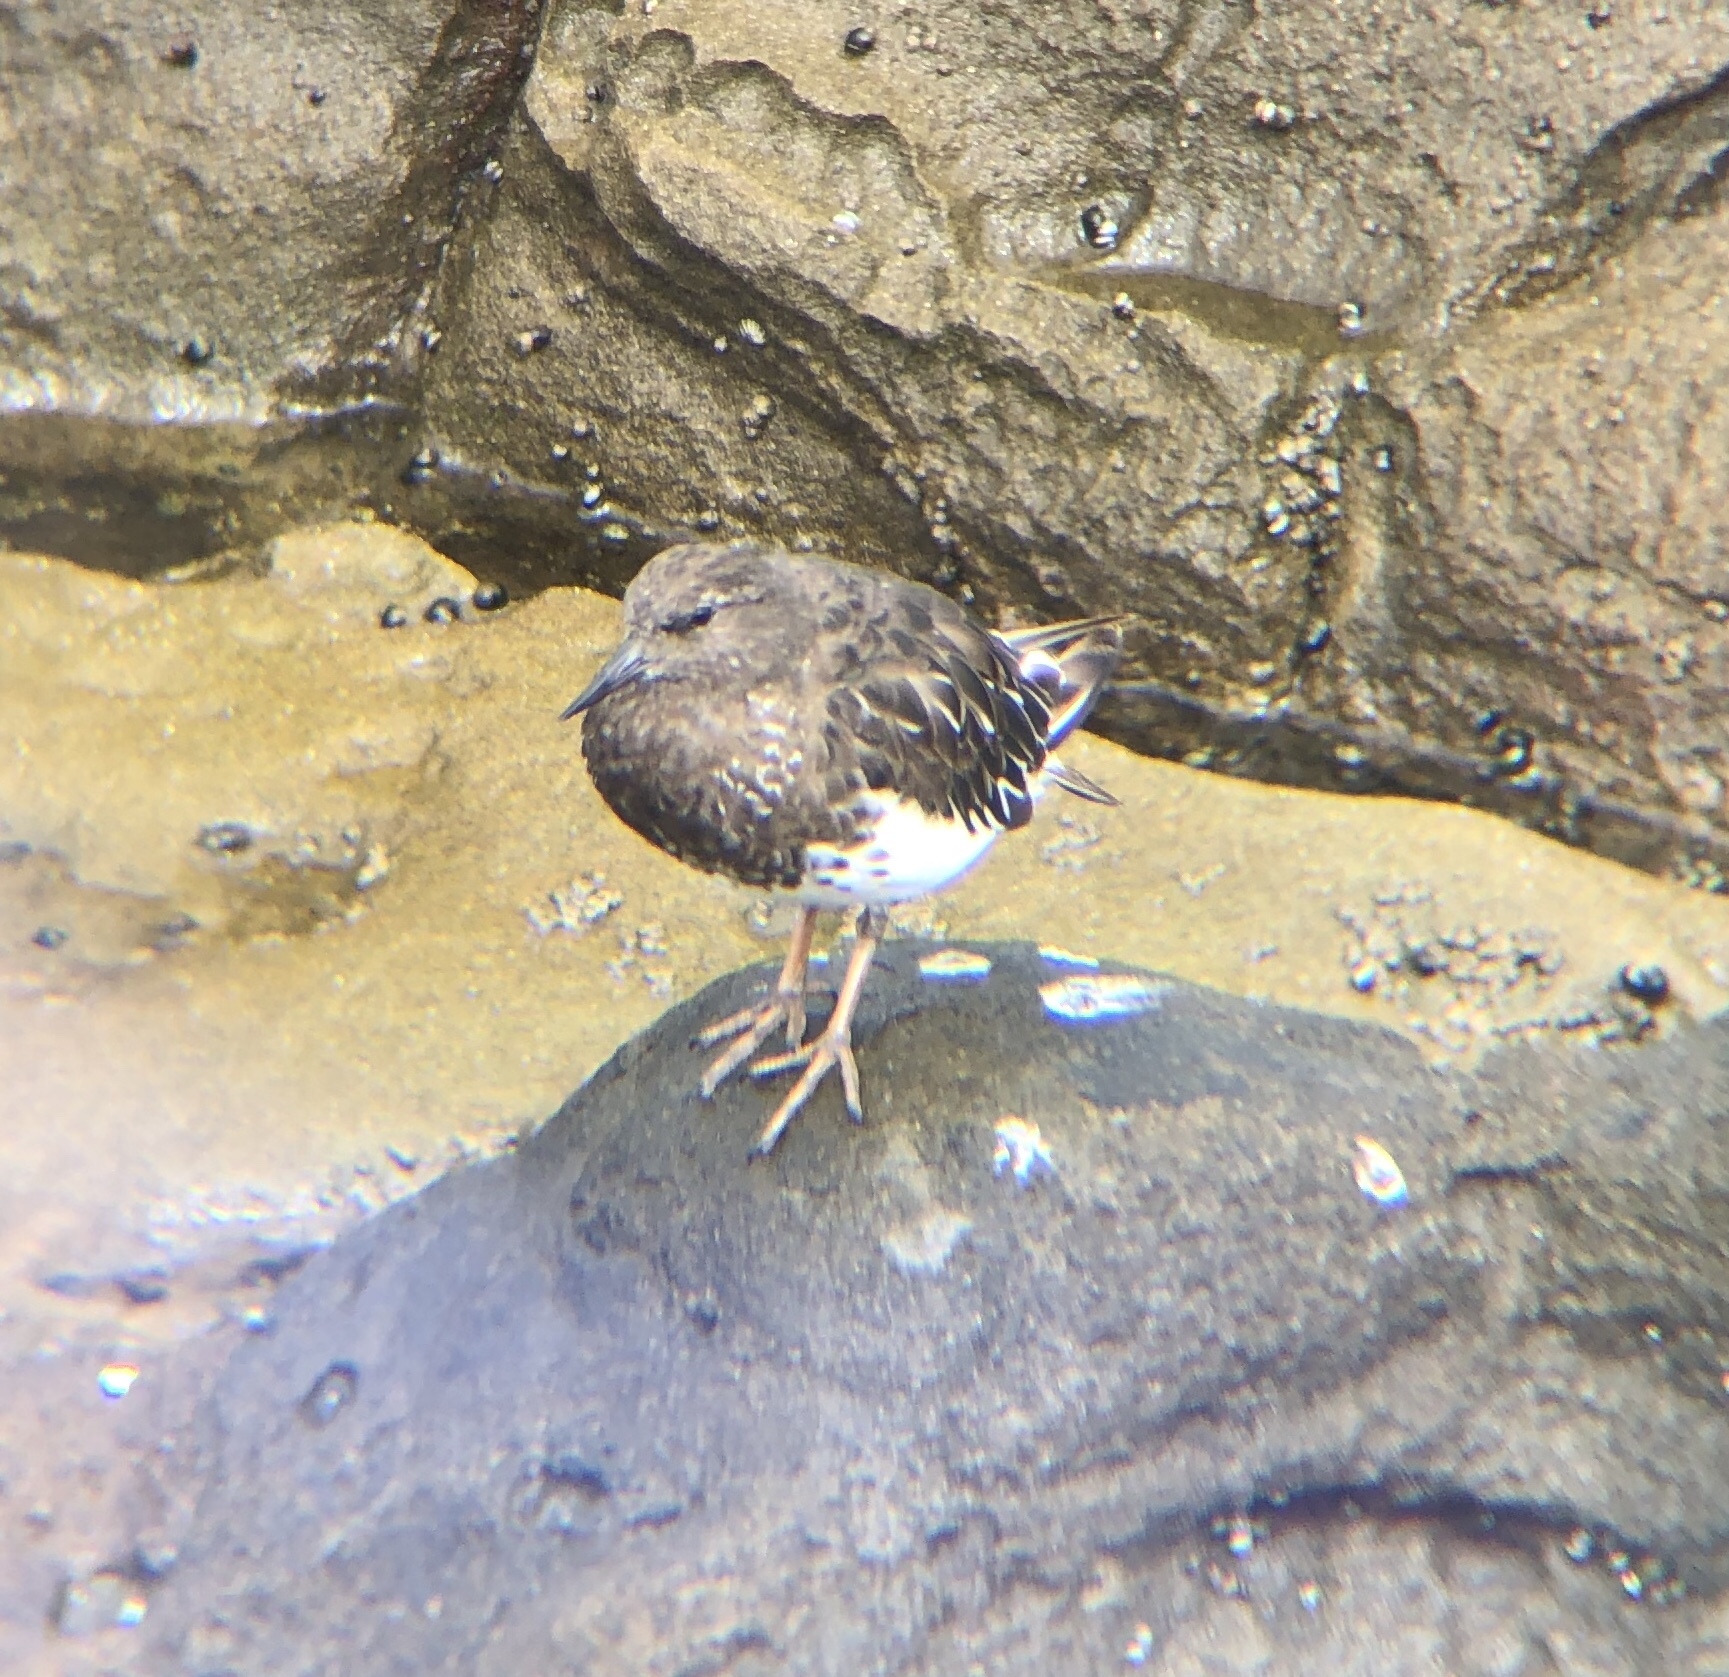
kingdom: Animalia
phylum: Chordata
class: Aves
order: Charadriiformes
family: Scolopacidae
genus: Arenaria
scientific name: Arenaria melanocephala
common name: Black turnstone
